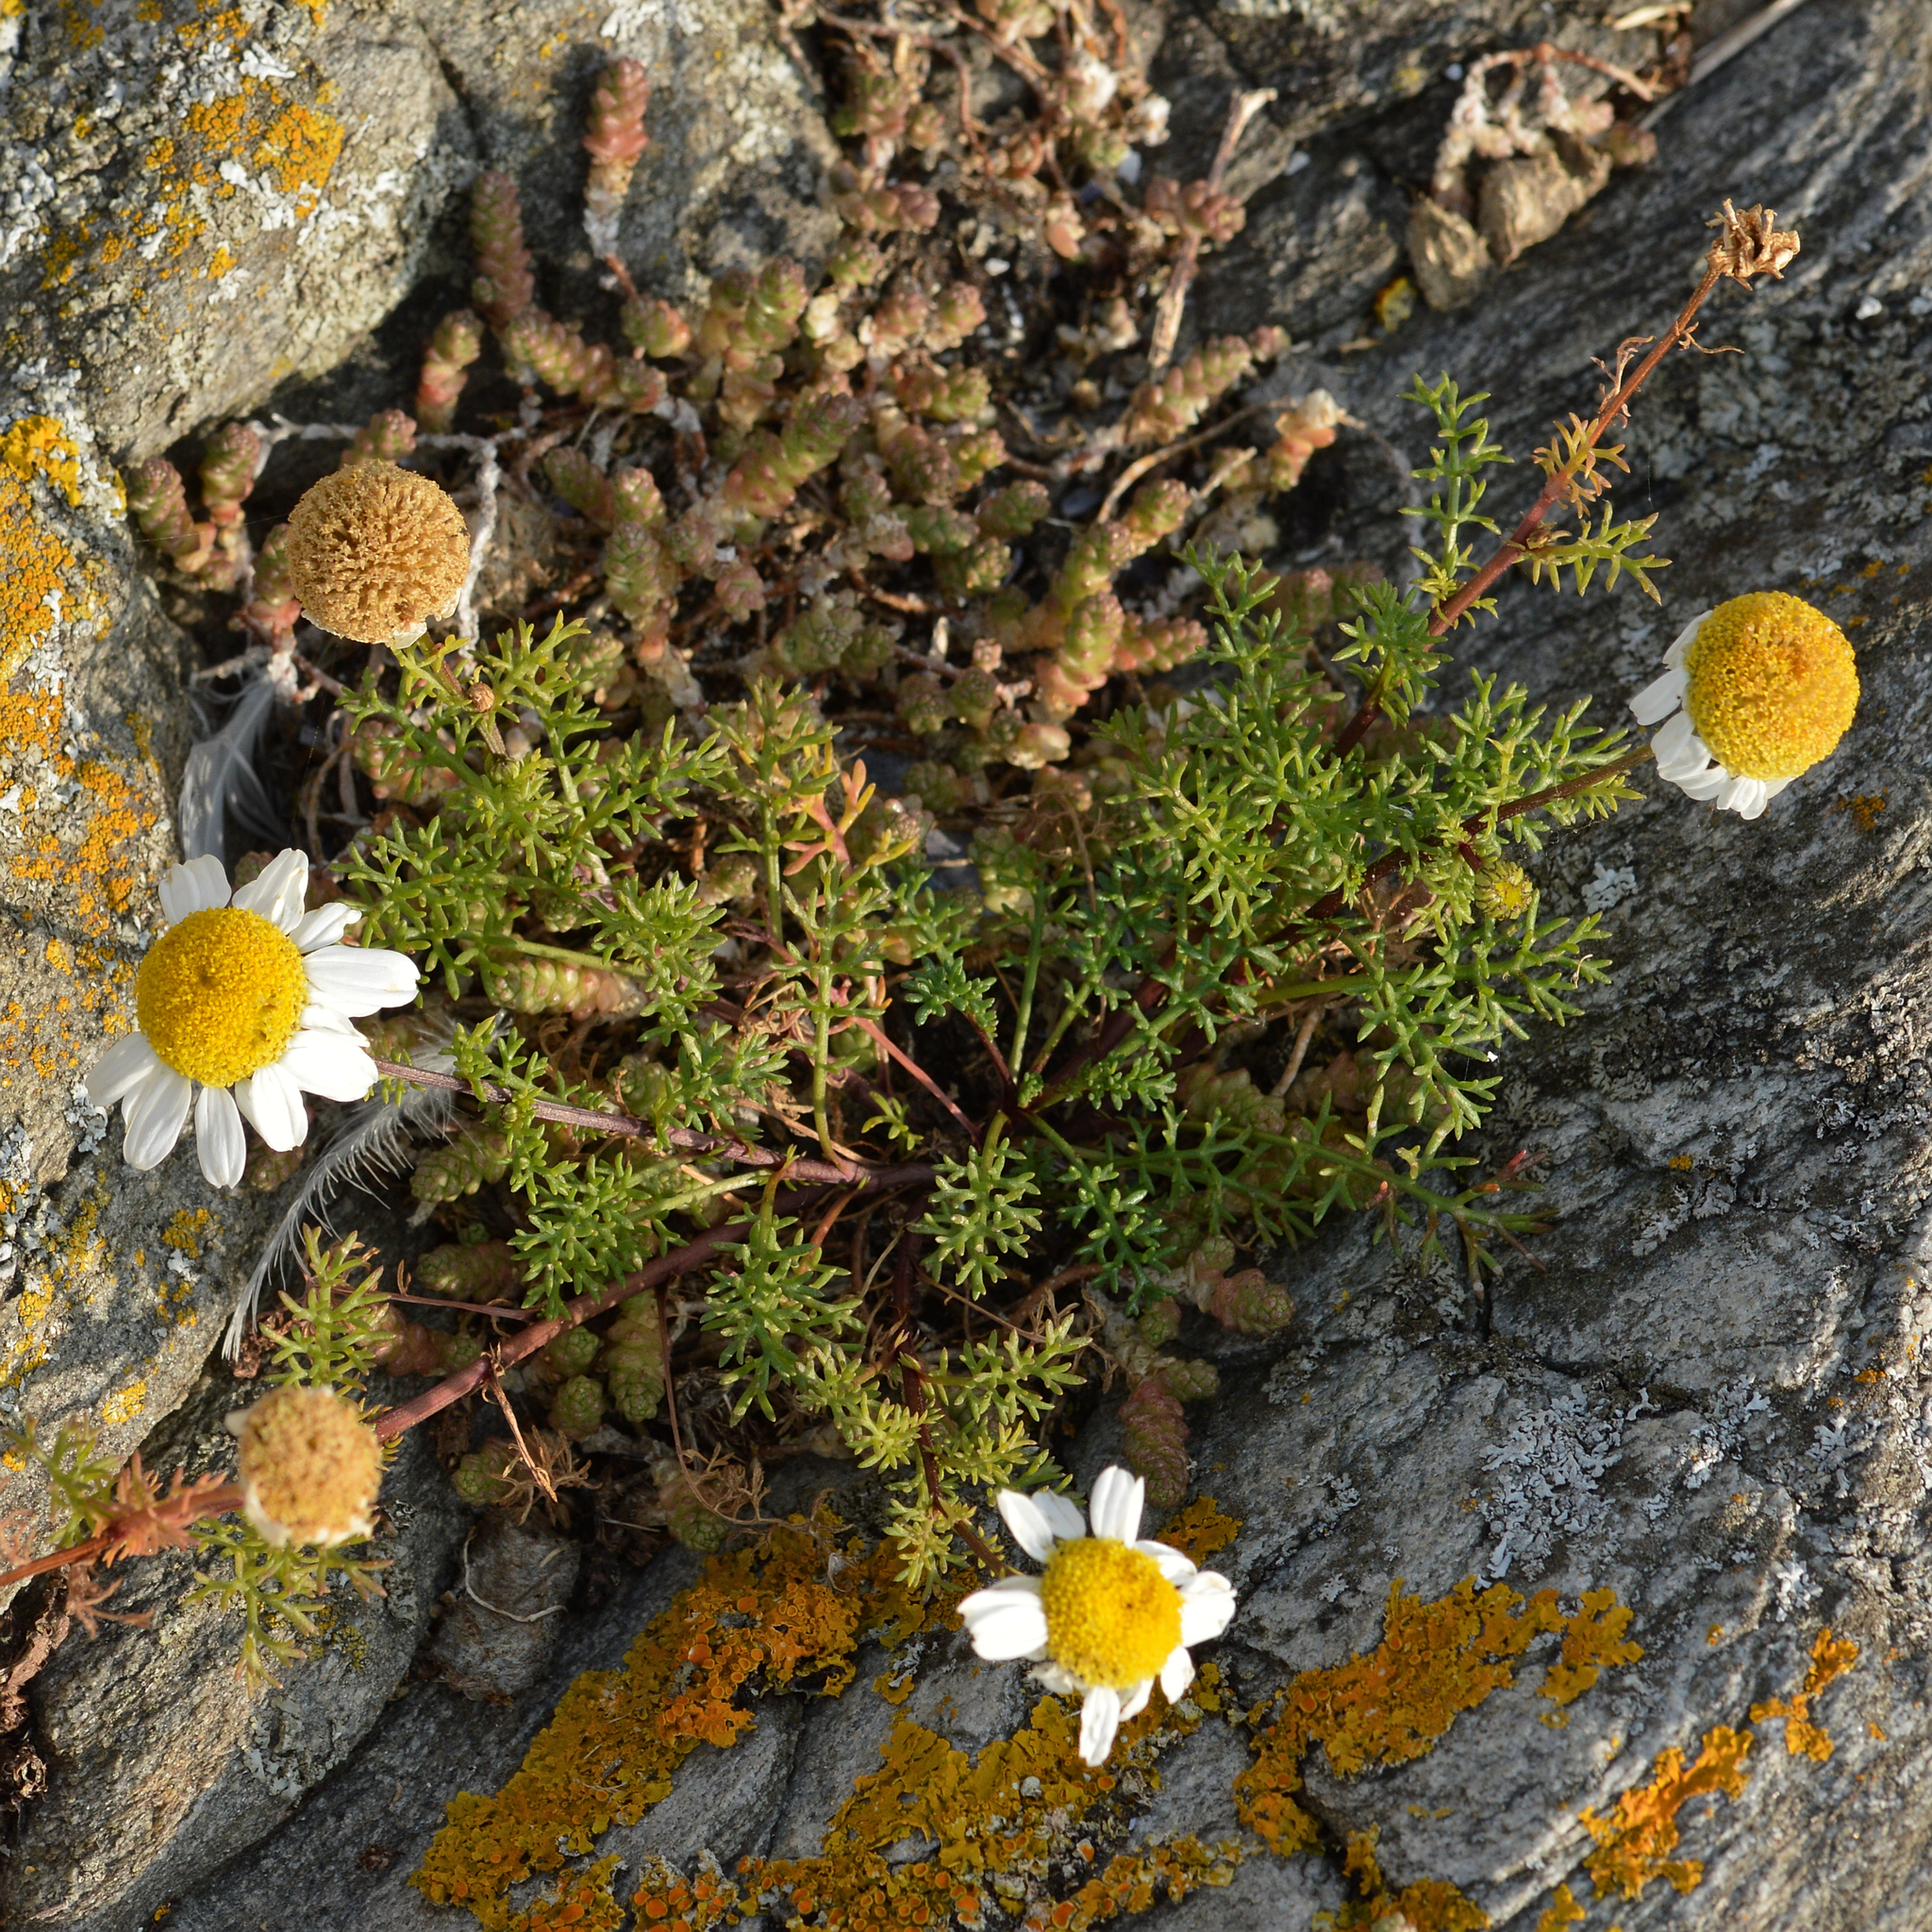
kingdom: Plantae
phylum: Tracheophyta
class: Magnoliopsida
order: Asterales
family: Asteraceae
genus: Tripleurospermum
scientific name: Tripleurospermum maritimum
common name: Sea mayweed
